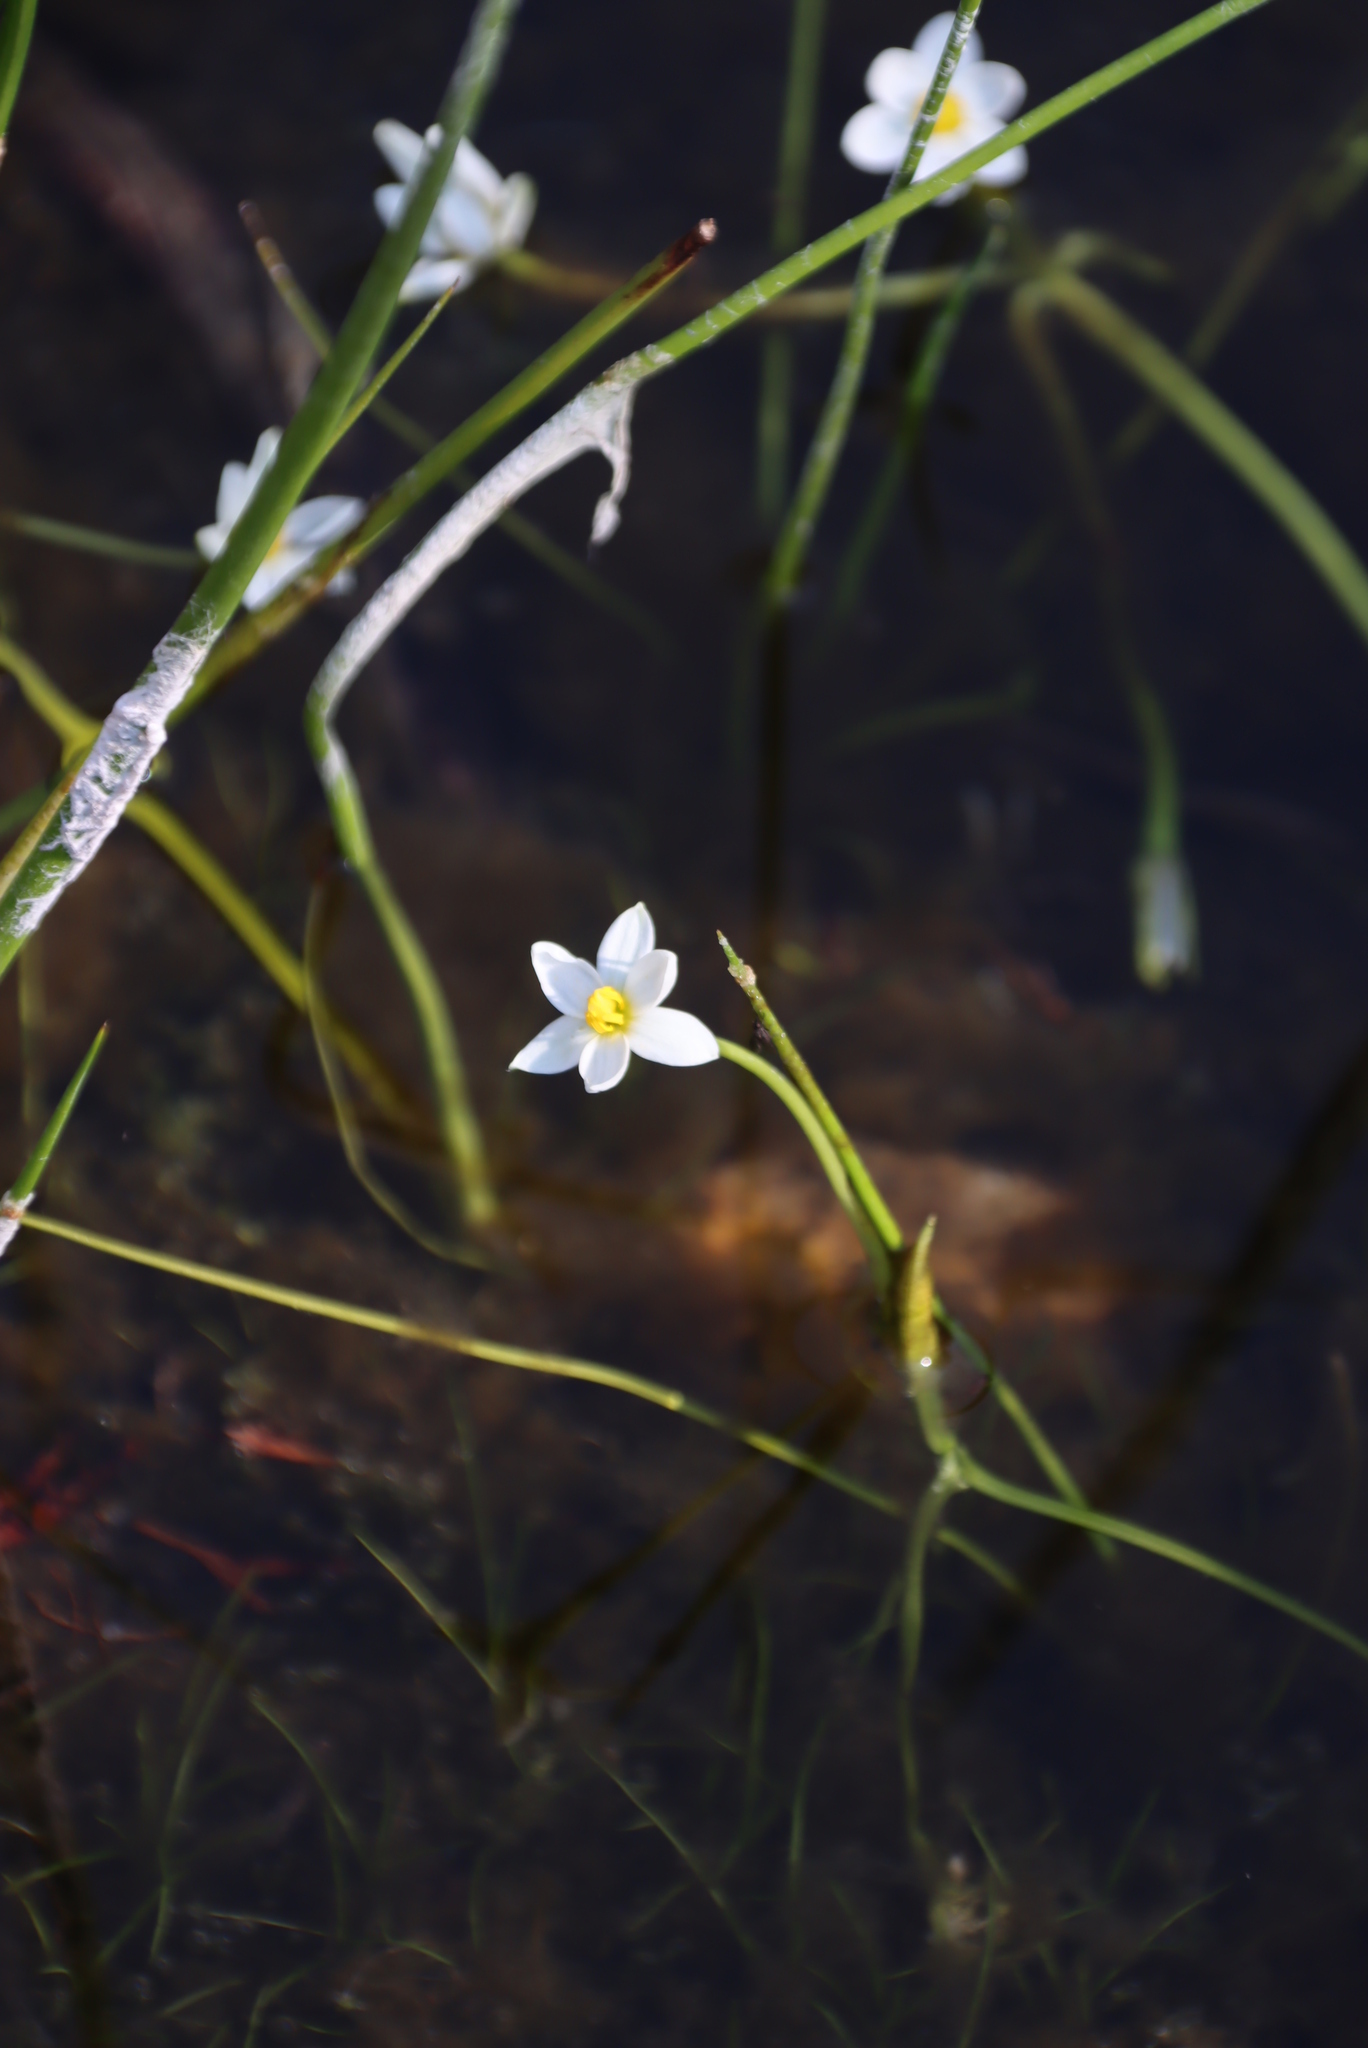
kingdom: Plantae
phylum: Tracheophyta
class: Liliopsida
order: Asparagales
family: Hypoxidaceae
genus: Pauridia
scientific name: Pauridia aquatica
